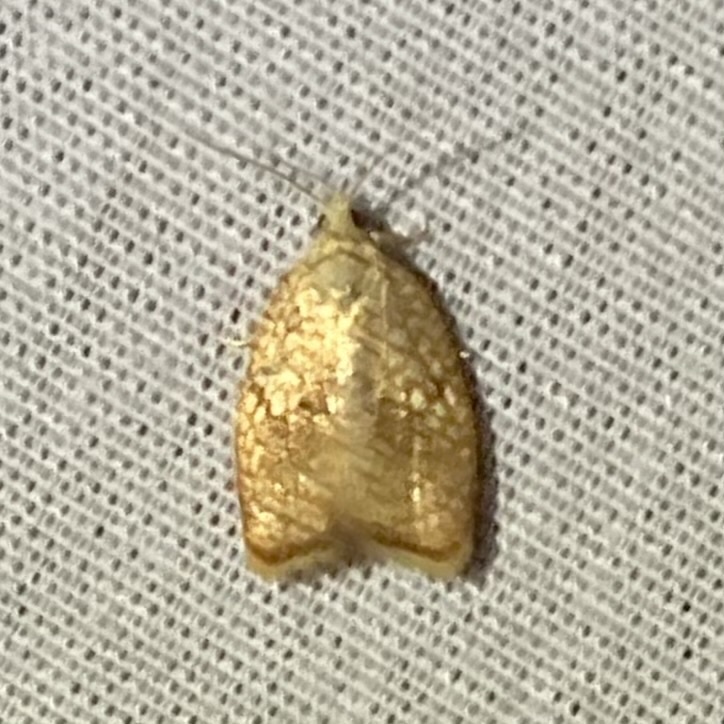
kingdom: Animalia
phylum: Arthropoda
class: Insecta
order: Lepidoptera
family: Tortricidae
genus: Acleris
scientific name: Acleris forsskaleana
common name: Maple button
